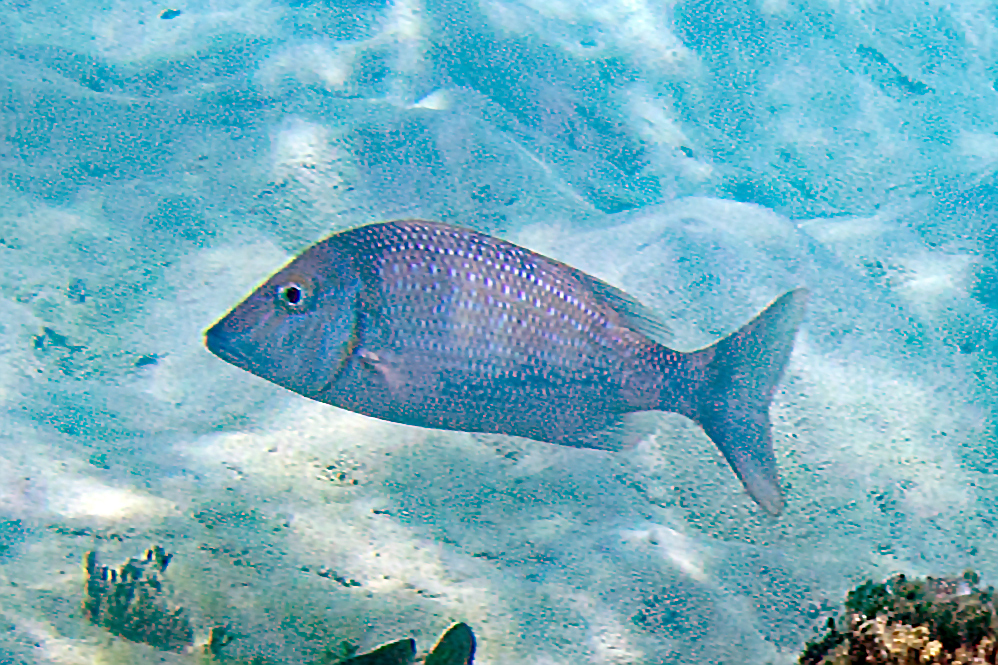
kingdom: Animalia
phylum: Chordata
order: Perciformes
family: Lethrinidae
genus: Lethrinus
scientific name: Lethrinus nebulosus
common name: Spangled emperor
